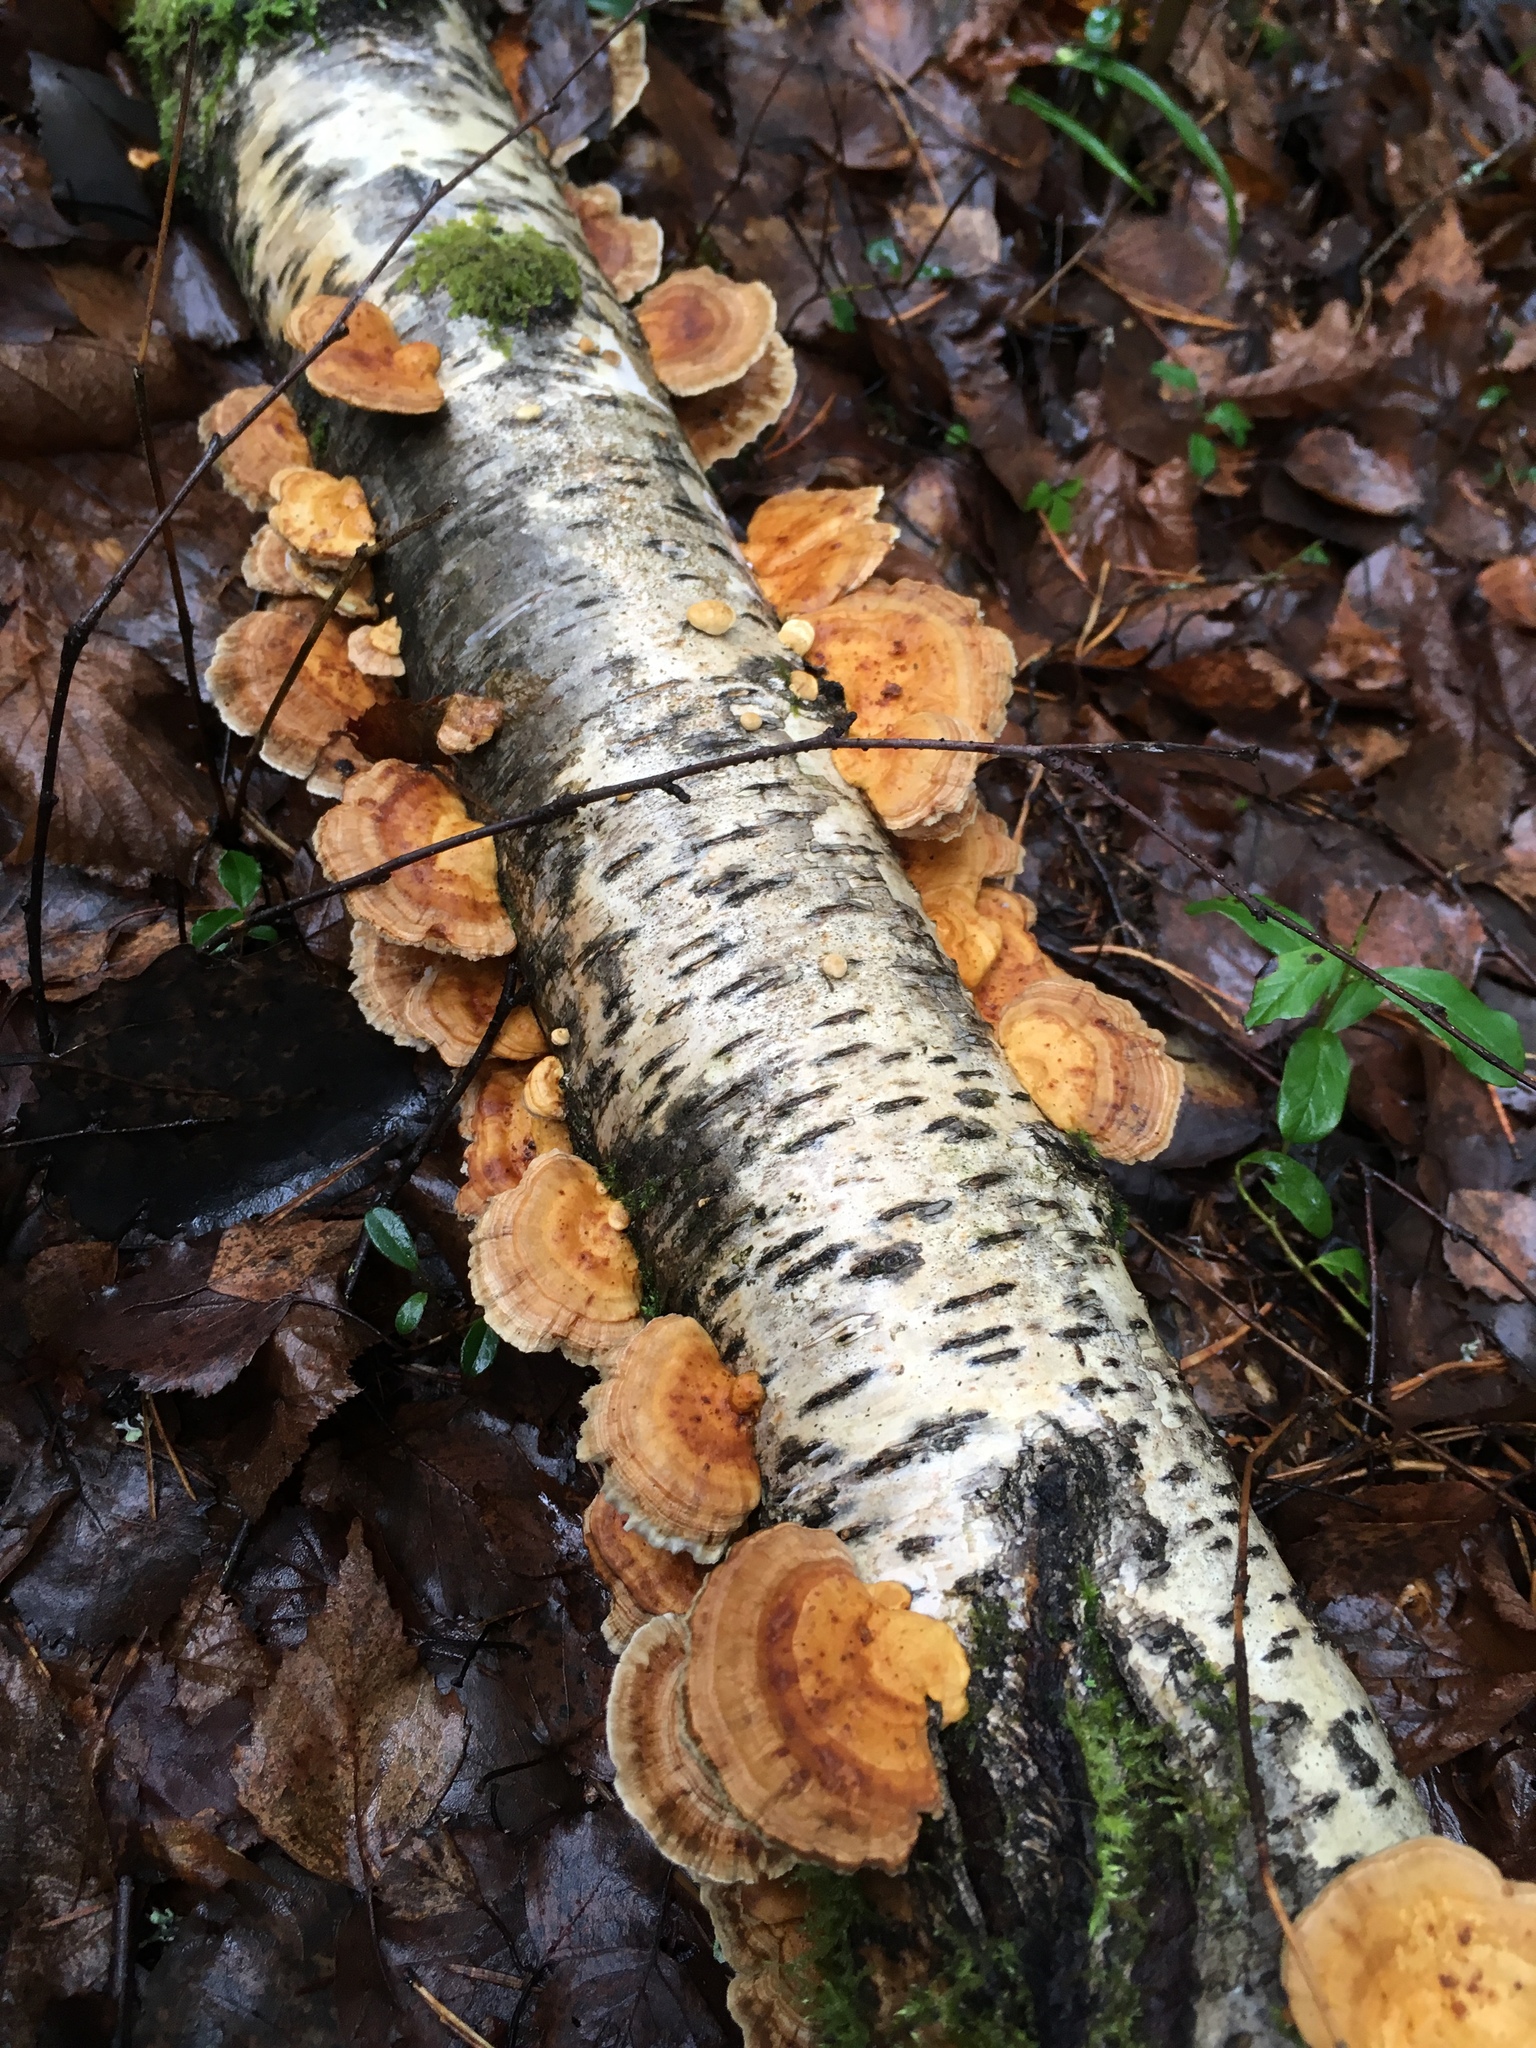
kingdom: Fungi
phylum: Basidiomycota
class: Agaricomycetes
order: Polyporales
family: Polyporaceae
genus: Trametes
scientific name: Trametes ochracea
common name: Ochre bracket
